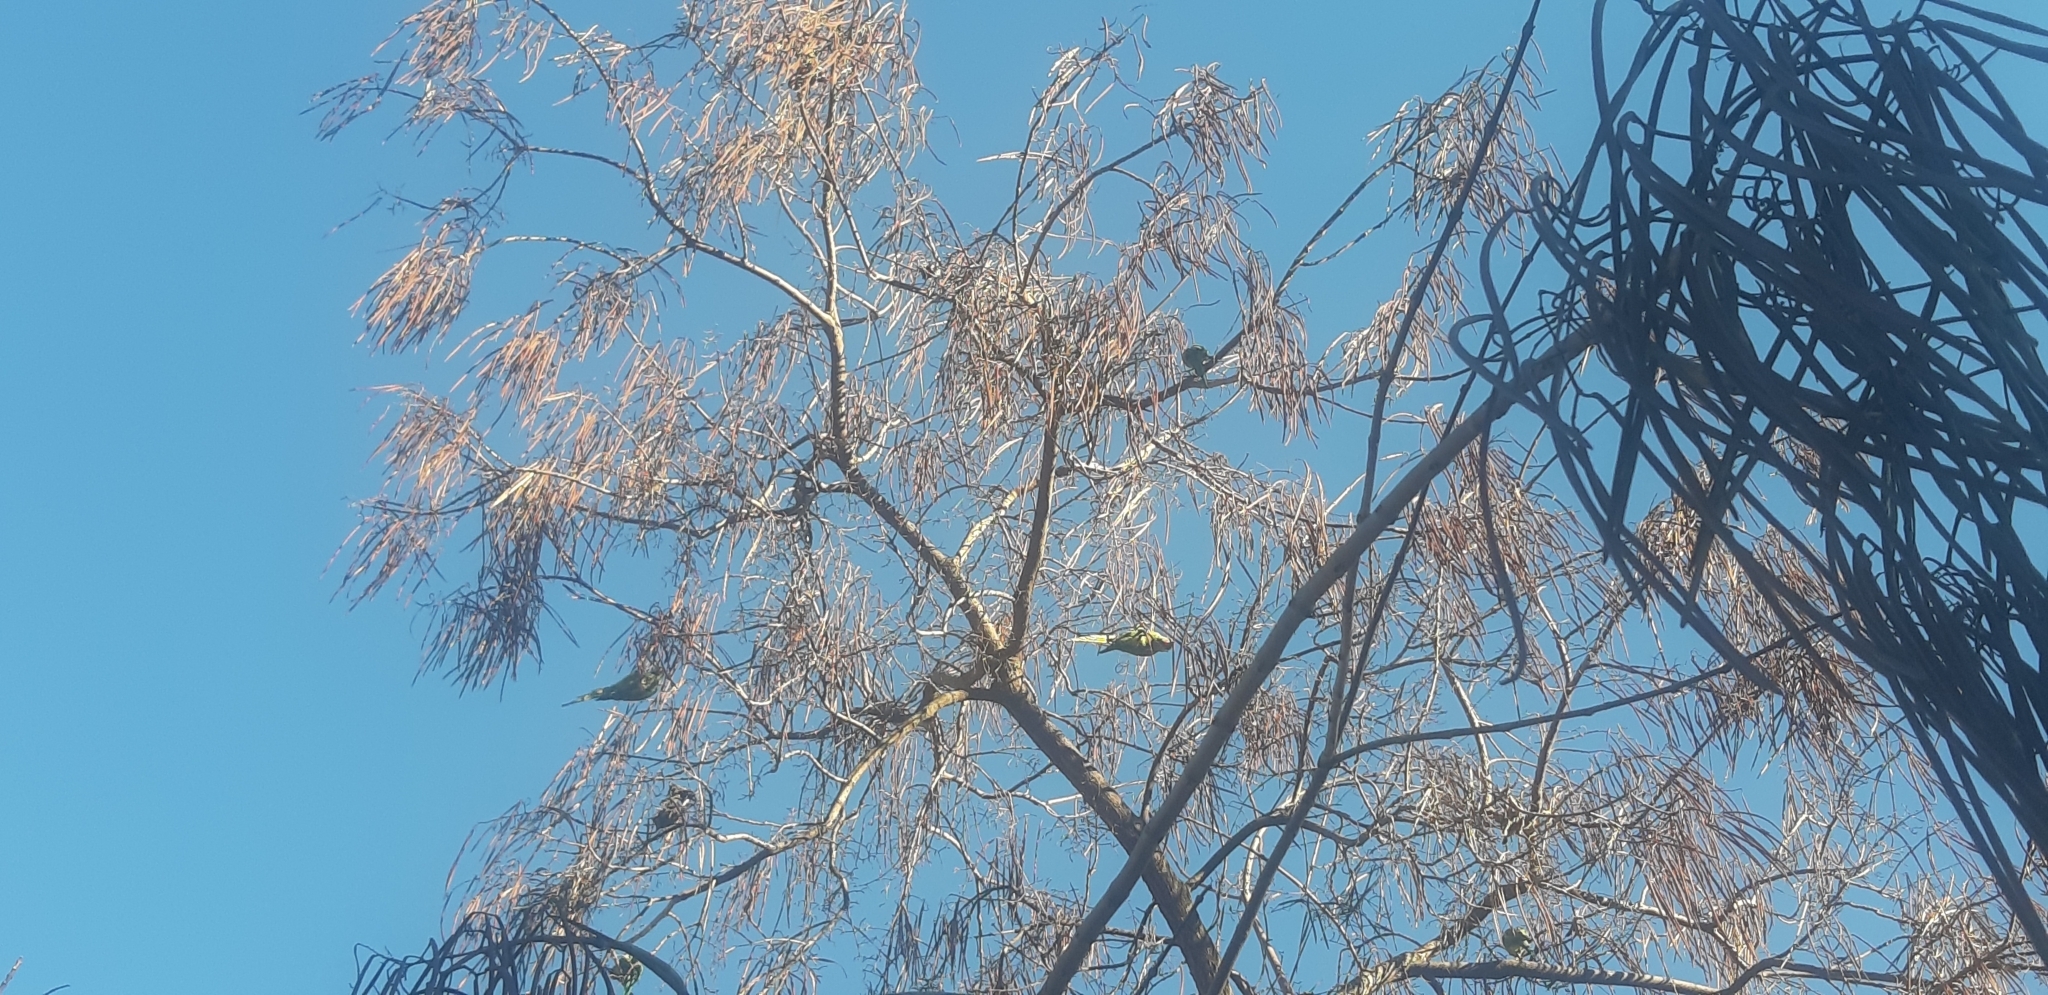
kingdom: Animalia
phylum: Chordata
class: Aves
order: Psittaciformes
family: Psittacidae
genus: Psittacula
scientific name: Psittacula krameri
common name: Rose-ringed parakeet
